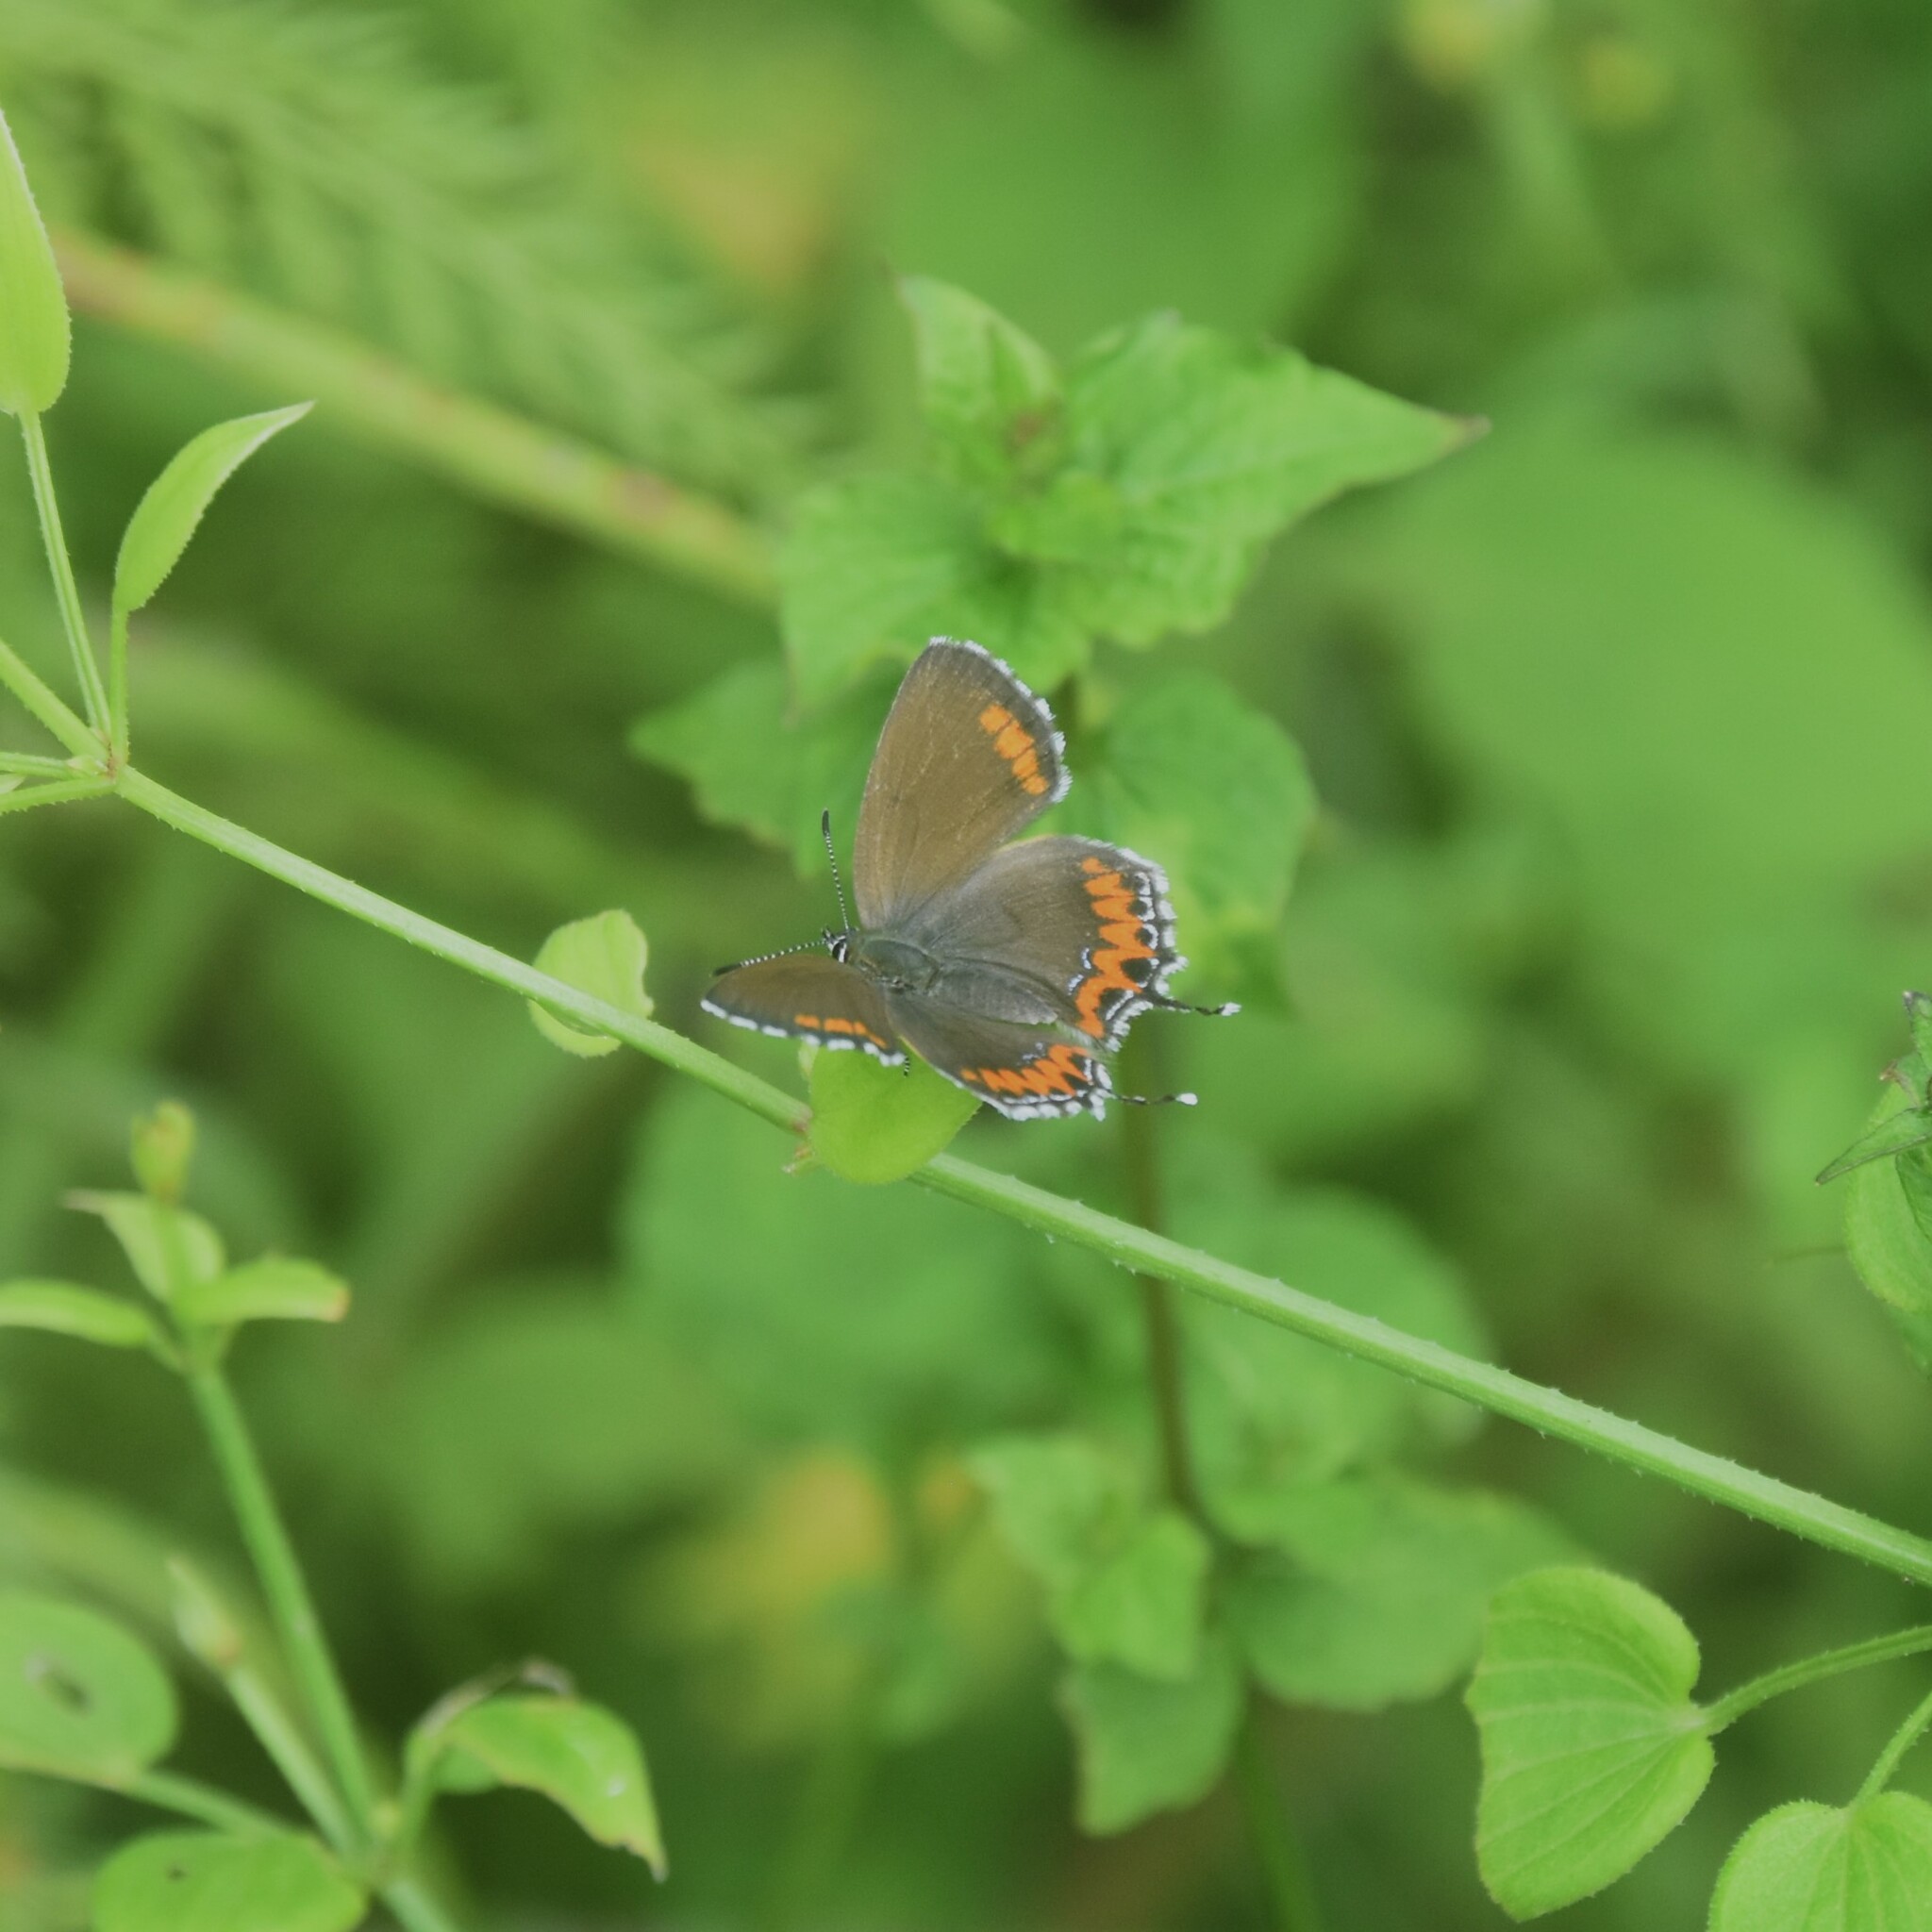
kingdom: Animalia
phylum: Arthropoda
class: Insecta
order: Lepidoptera
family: Lycaenidae
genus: Heliophorus
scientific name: Heliophorus sena
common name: Sorrel sapphire
